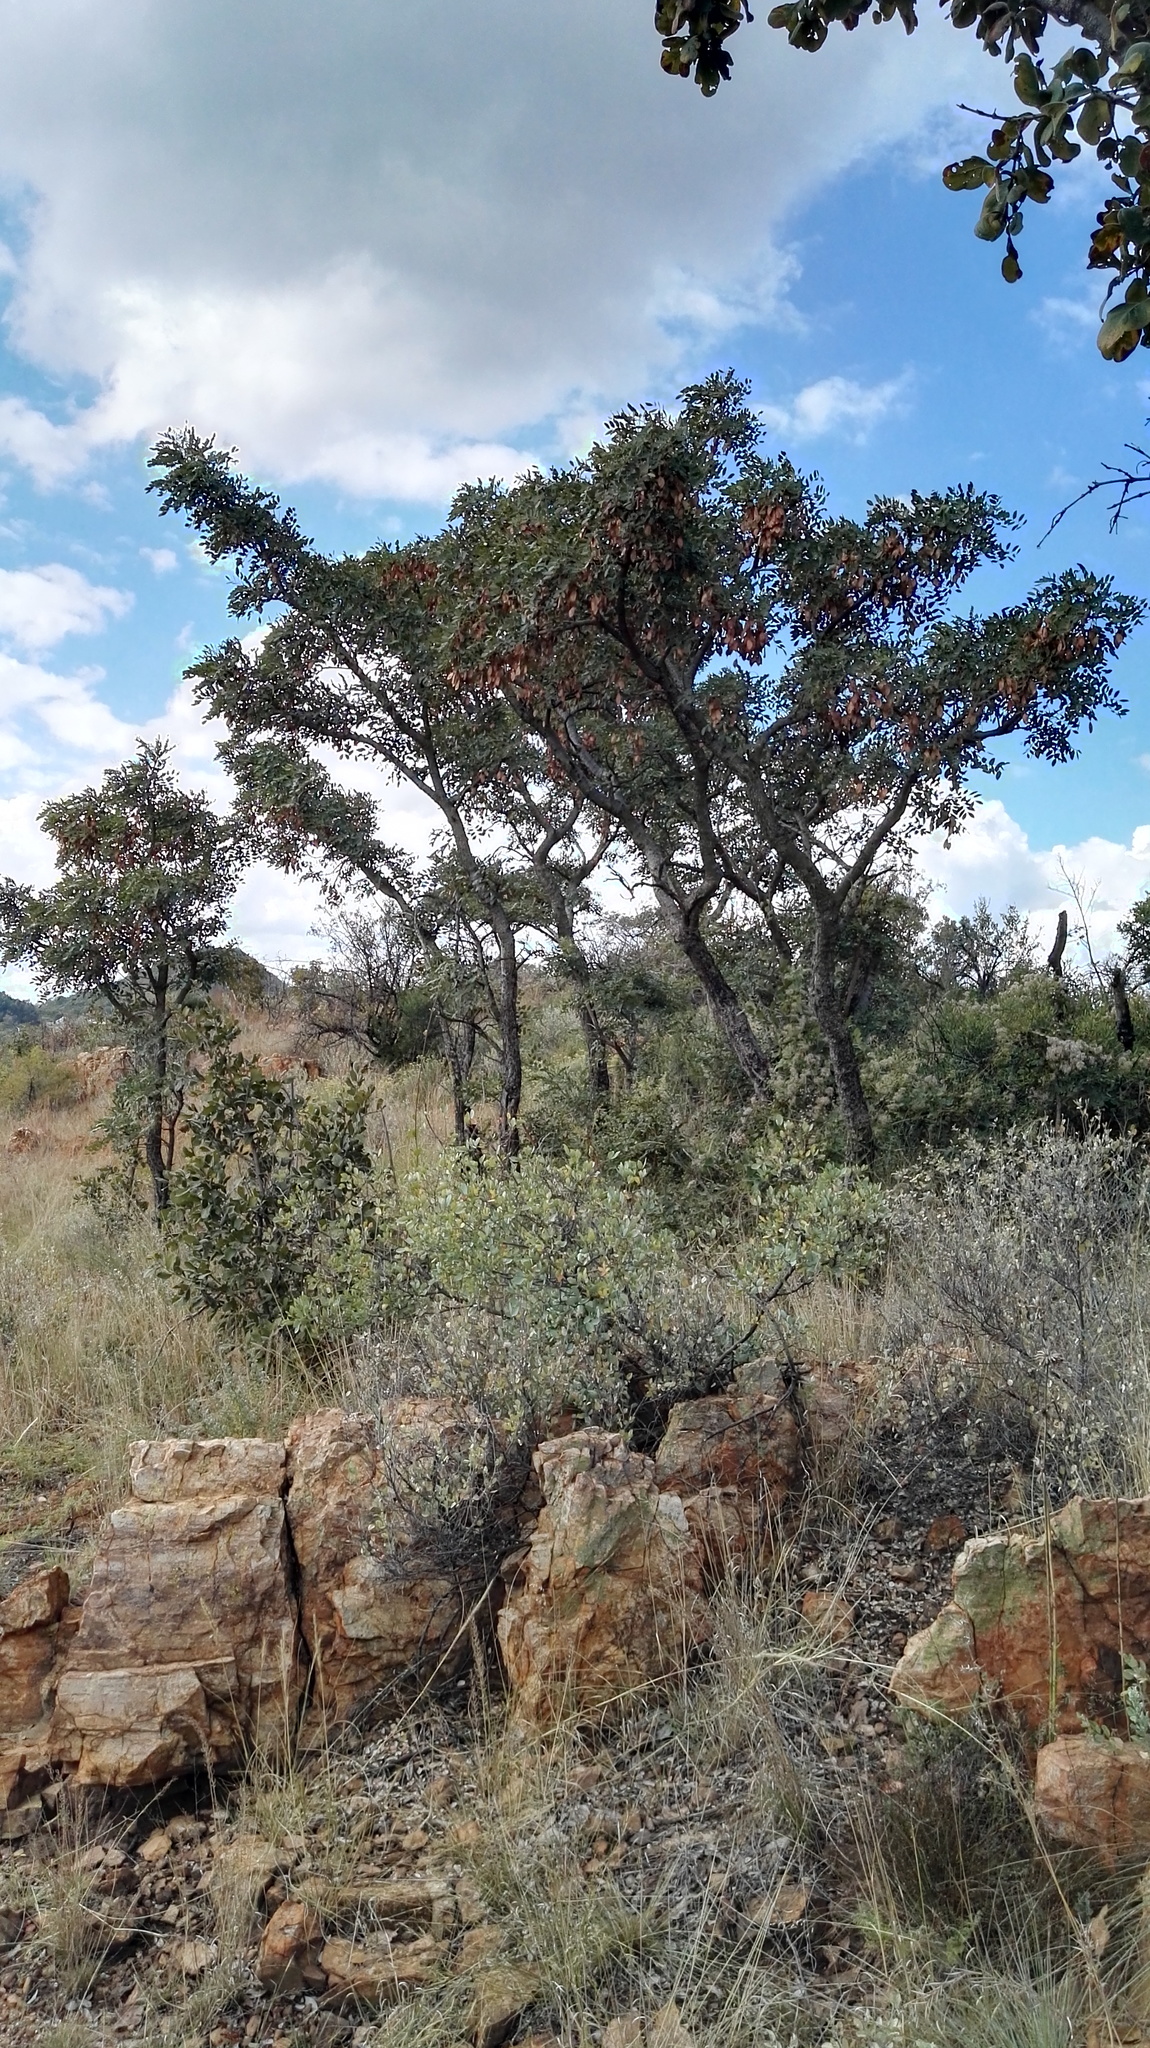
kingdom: Plantae
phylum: Tracheophyta
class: Magnoliopsida
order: Fabales
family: Fabaceae
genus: Burkea
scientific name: Burkea africana
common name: Mkalati tree
